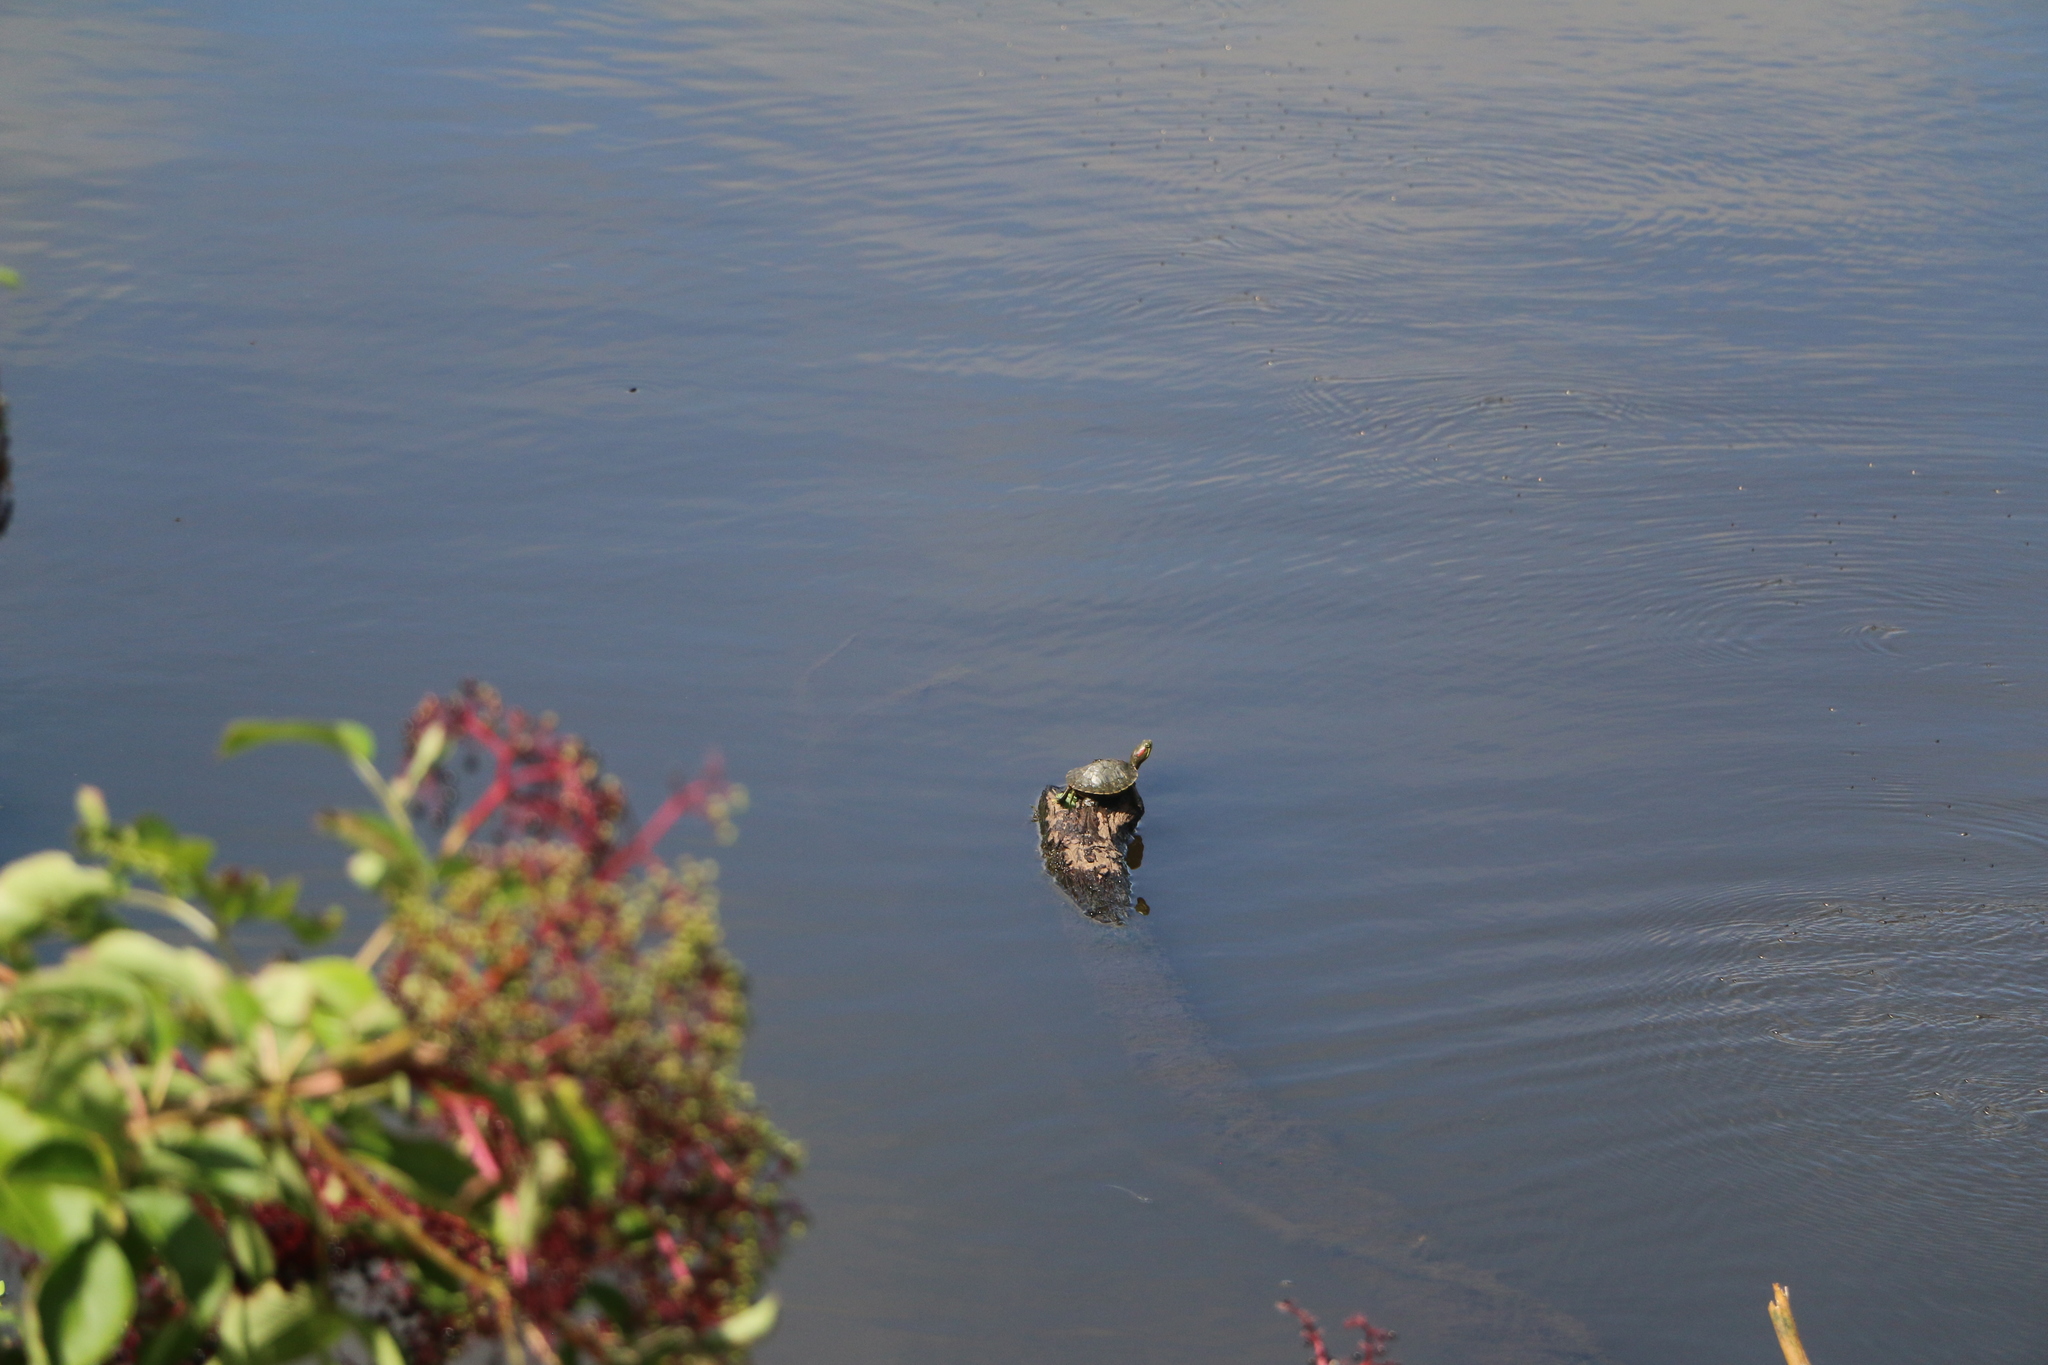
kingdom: Animalia
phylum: Chordata
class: Testudines
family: Emydidae
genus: Trachemys
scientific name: Trachemys scripta
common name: Slider
